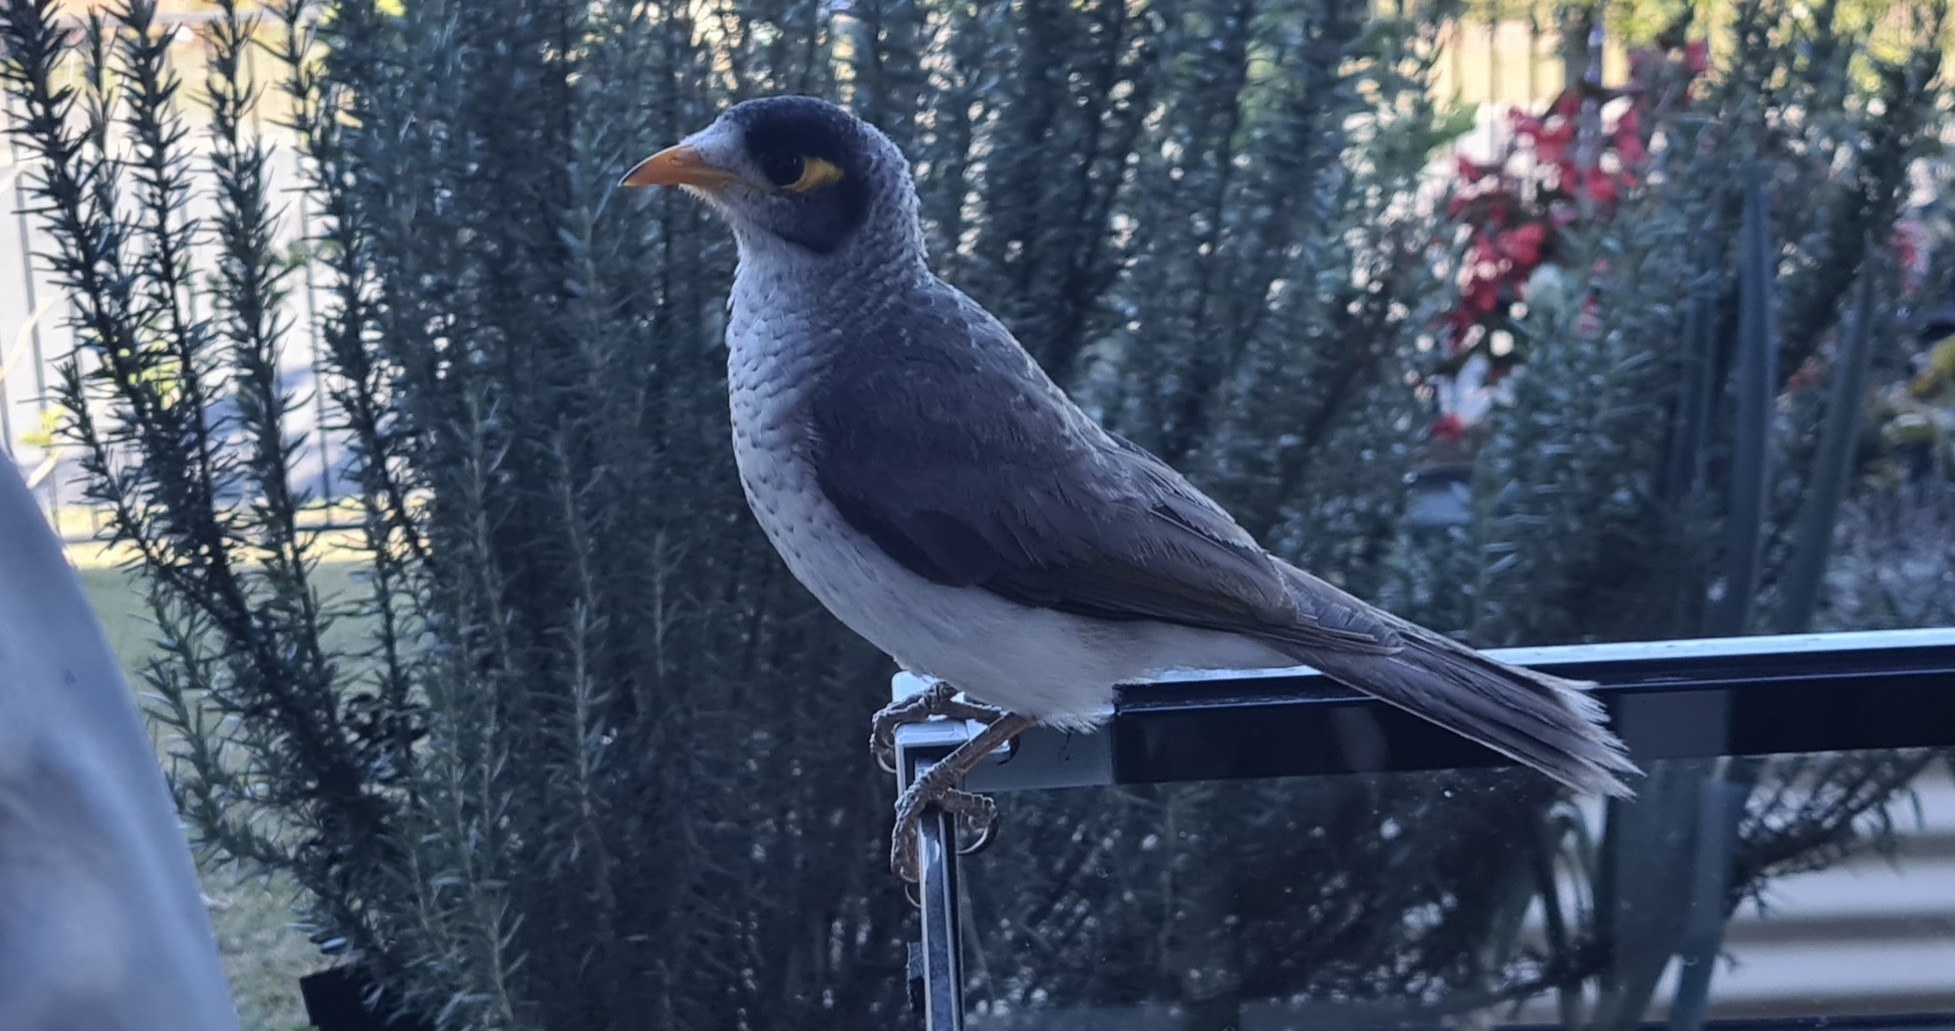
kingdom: Animalia
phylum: Chordata
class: Aves
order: Passeriformes
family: Meliphagidae
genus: Manorina
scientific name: Manorina melanocephala
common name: Noisy miner
